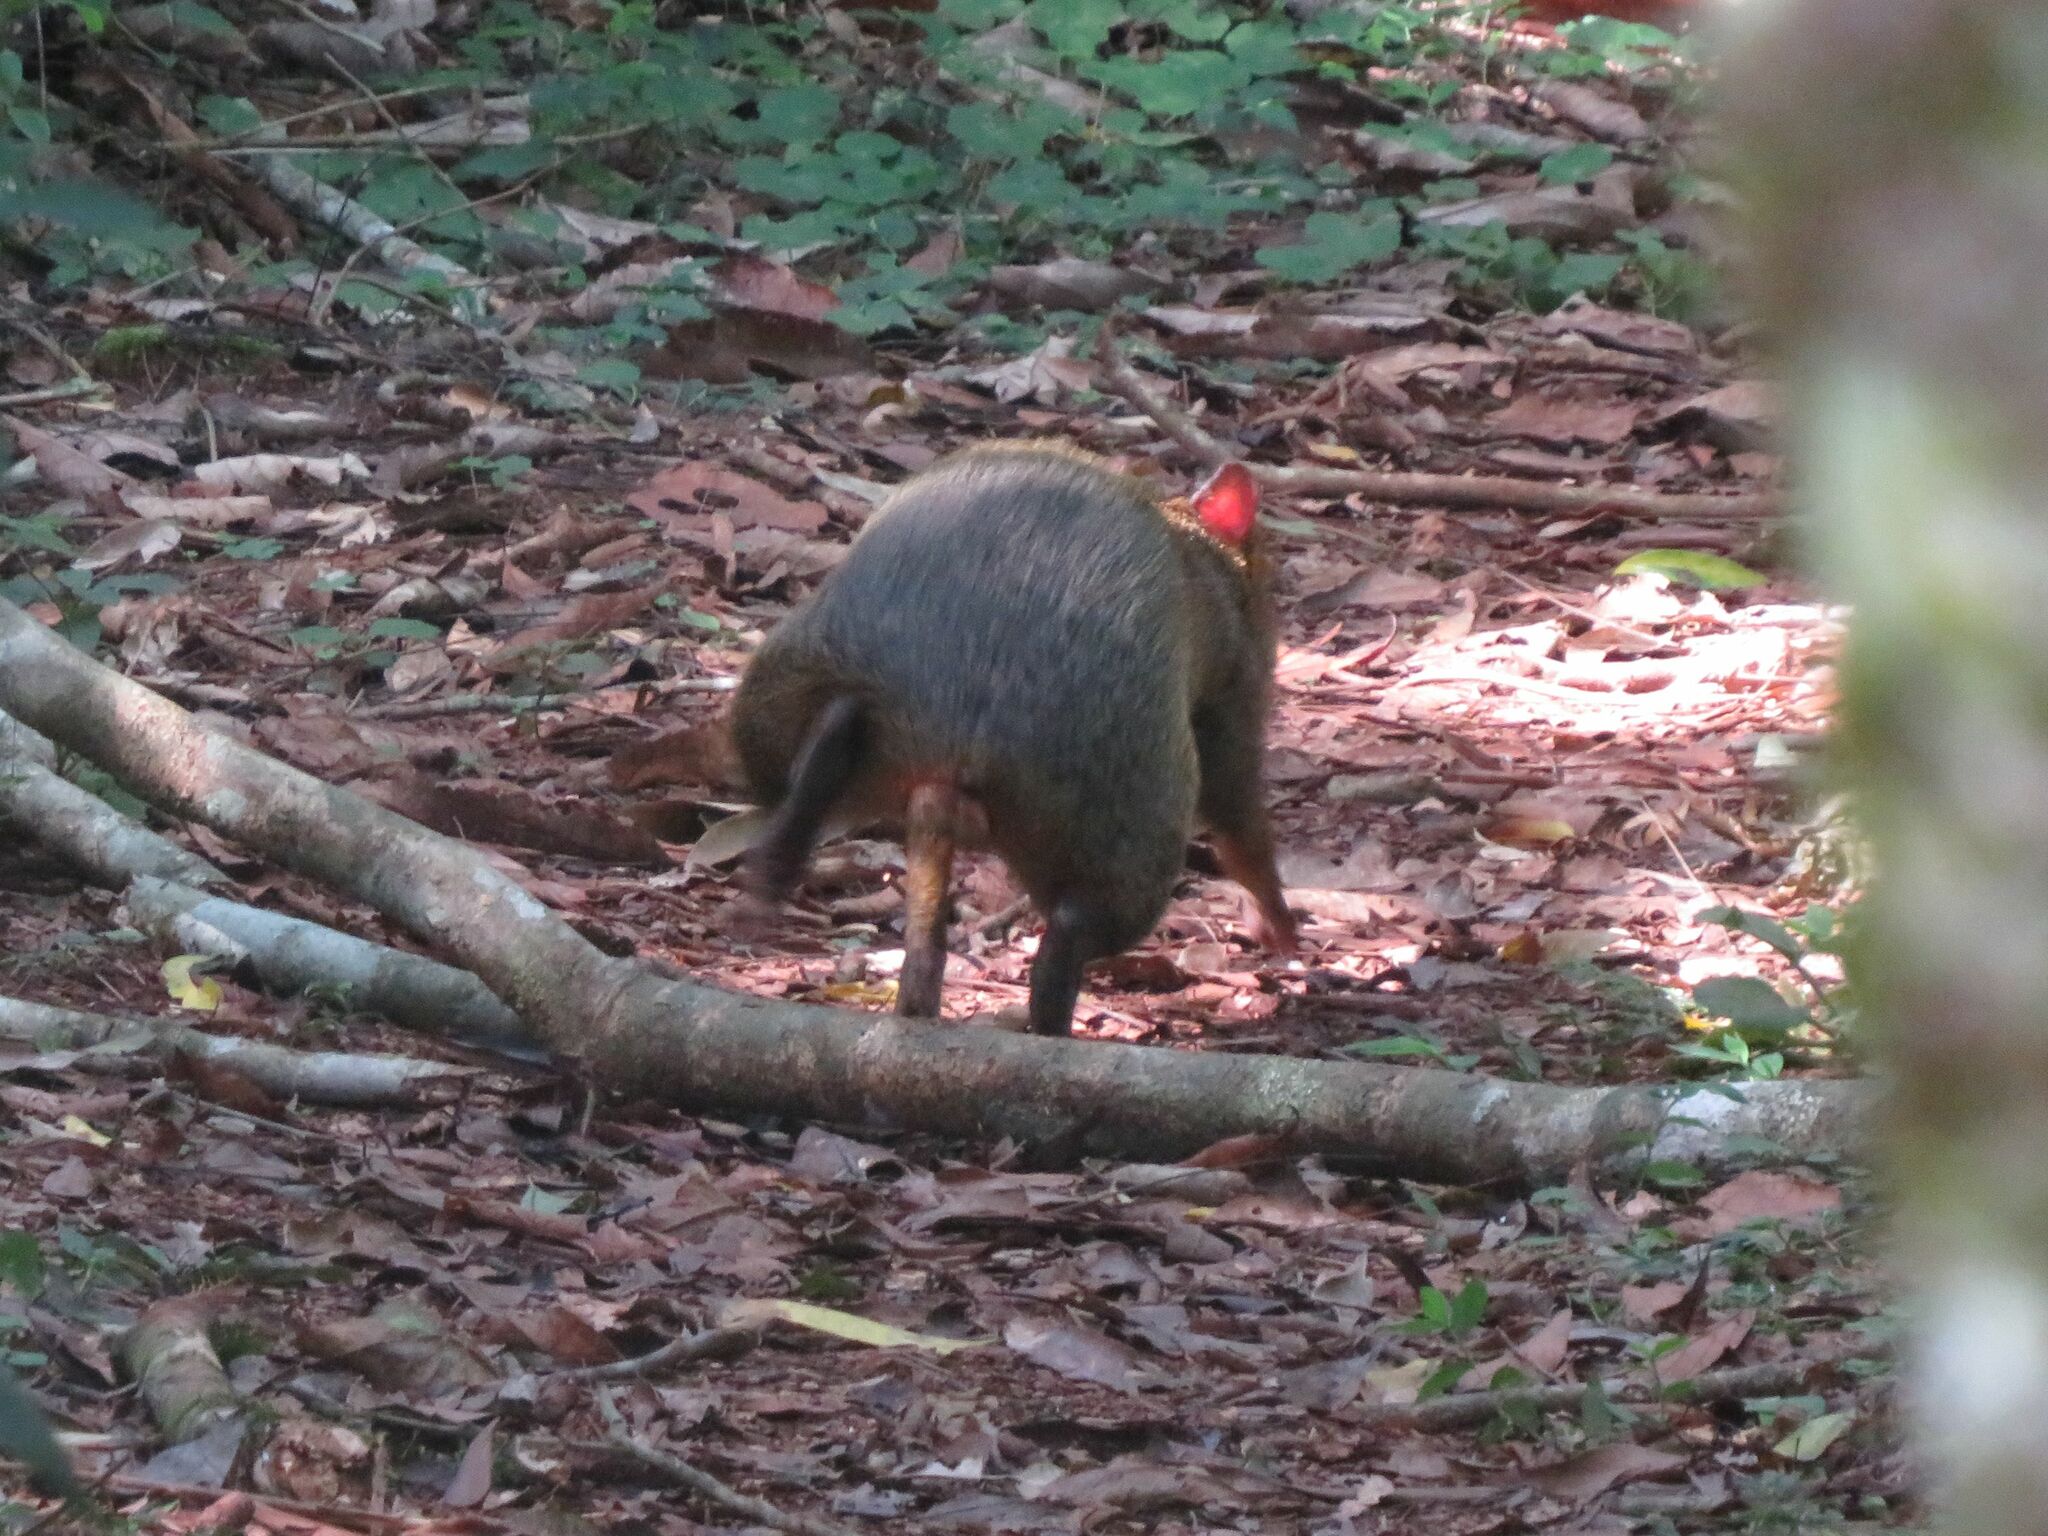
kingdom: Animalia
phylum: Chordata
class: Mammalia
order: Rodentia
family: Dasyproctidae
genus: Dasyprocta
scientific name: Dasyprocta azarae
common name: Azara's agouti
